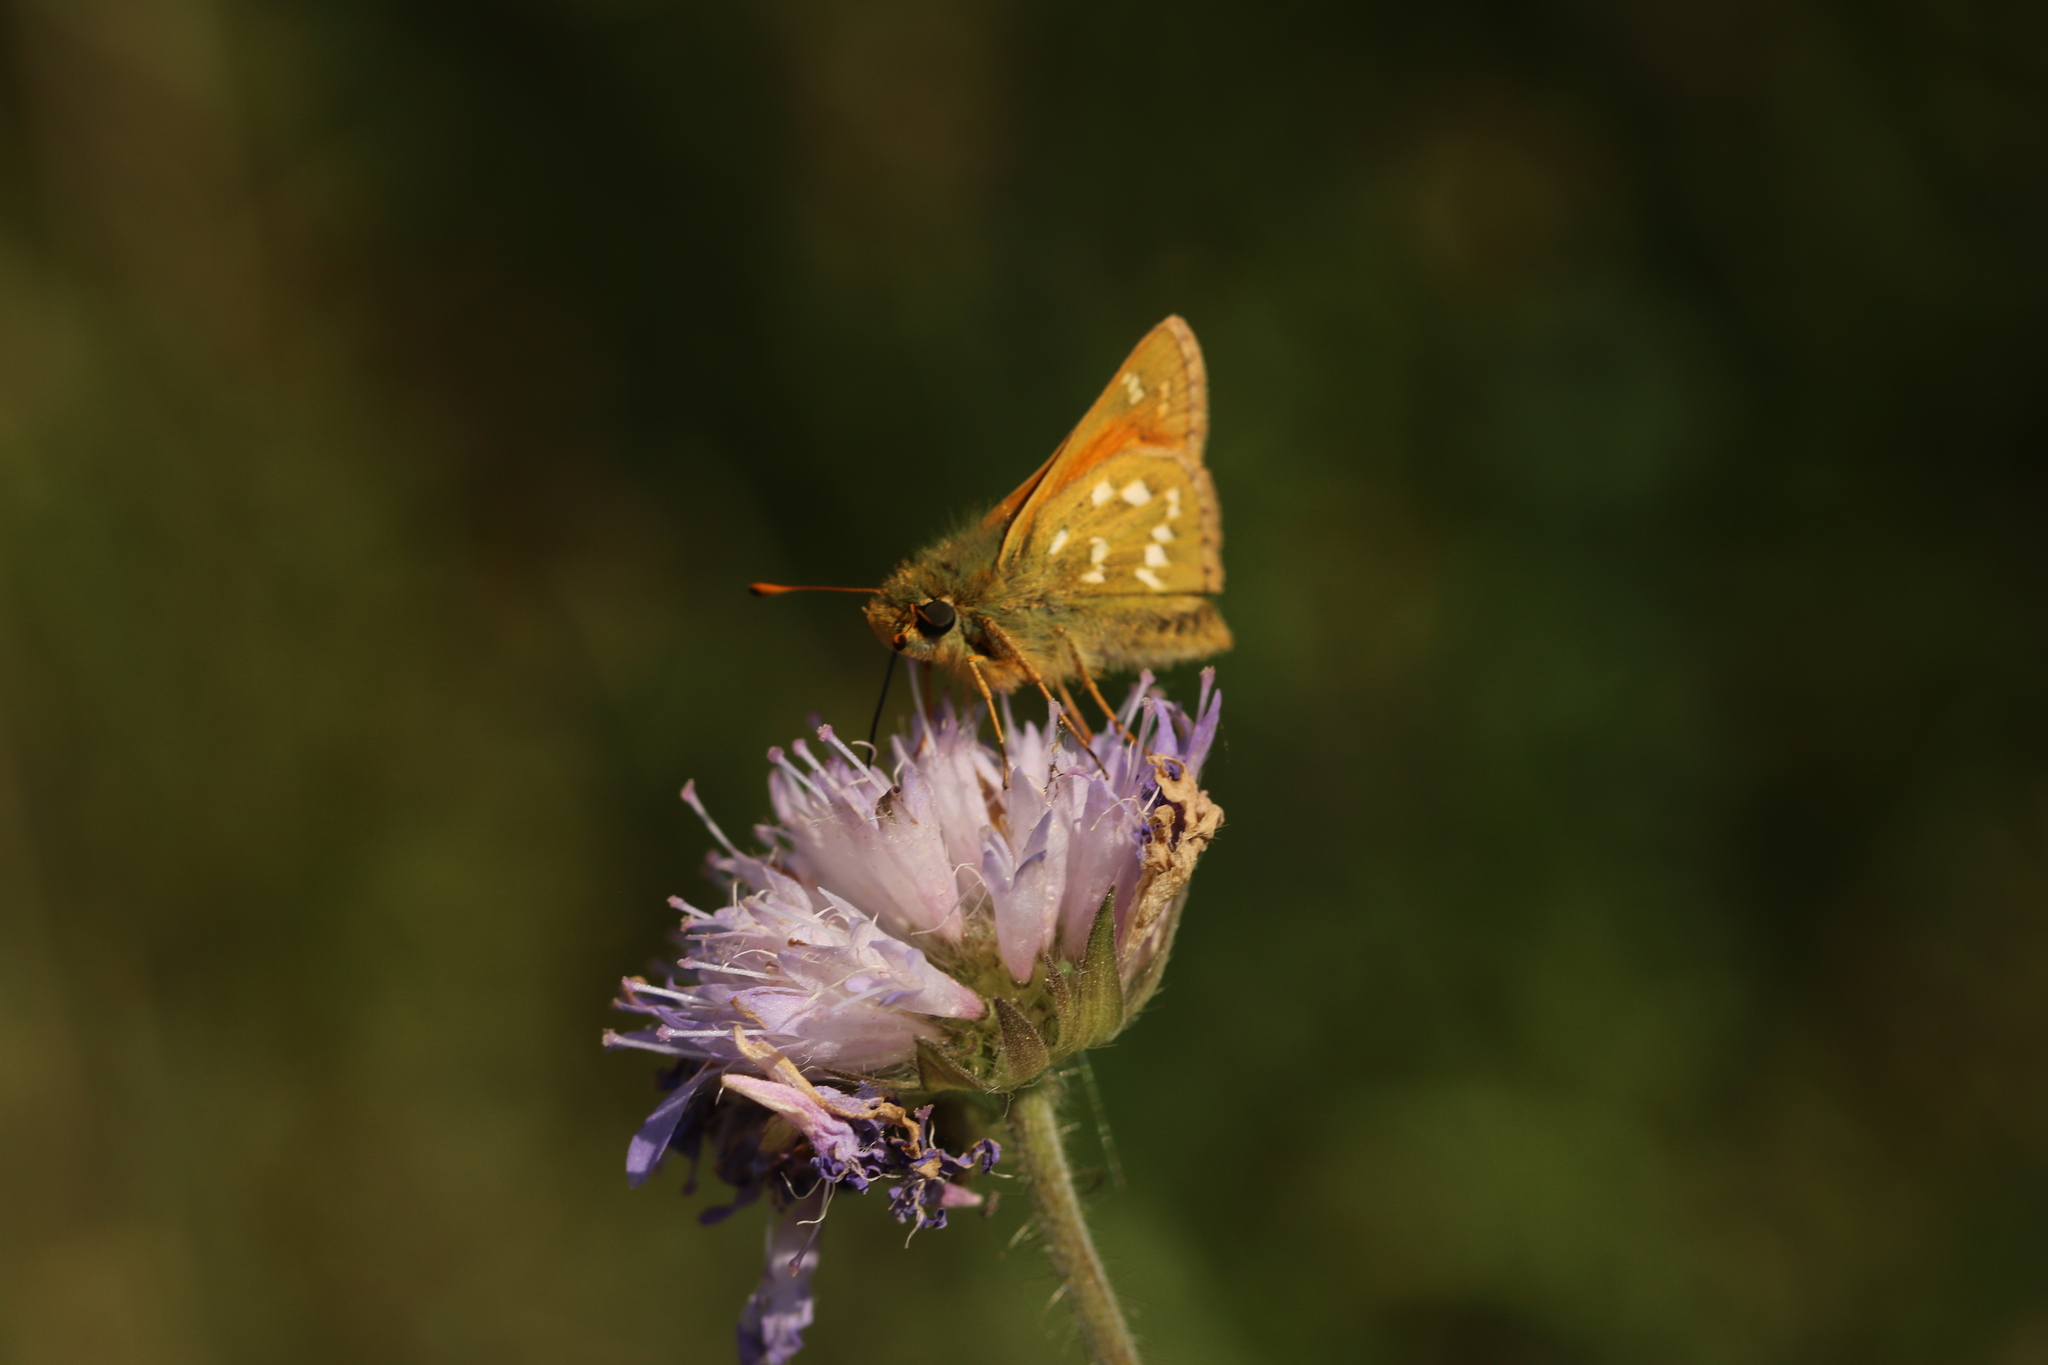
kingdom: Animalia
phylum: Arthropoda
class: Insecta
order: Lepidoptera
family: Hesperiidae
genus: Hesperia
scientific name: Hesperia comma
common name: Common branded skipper
